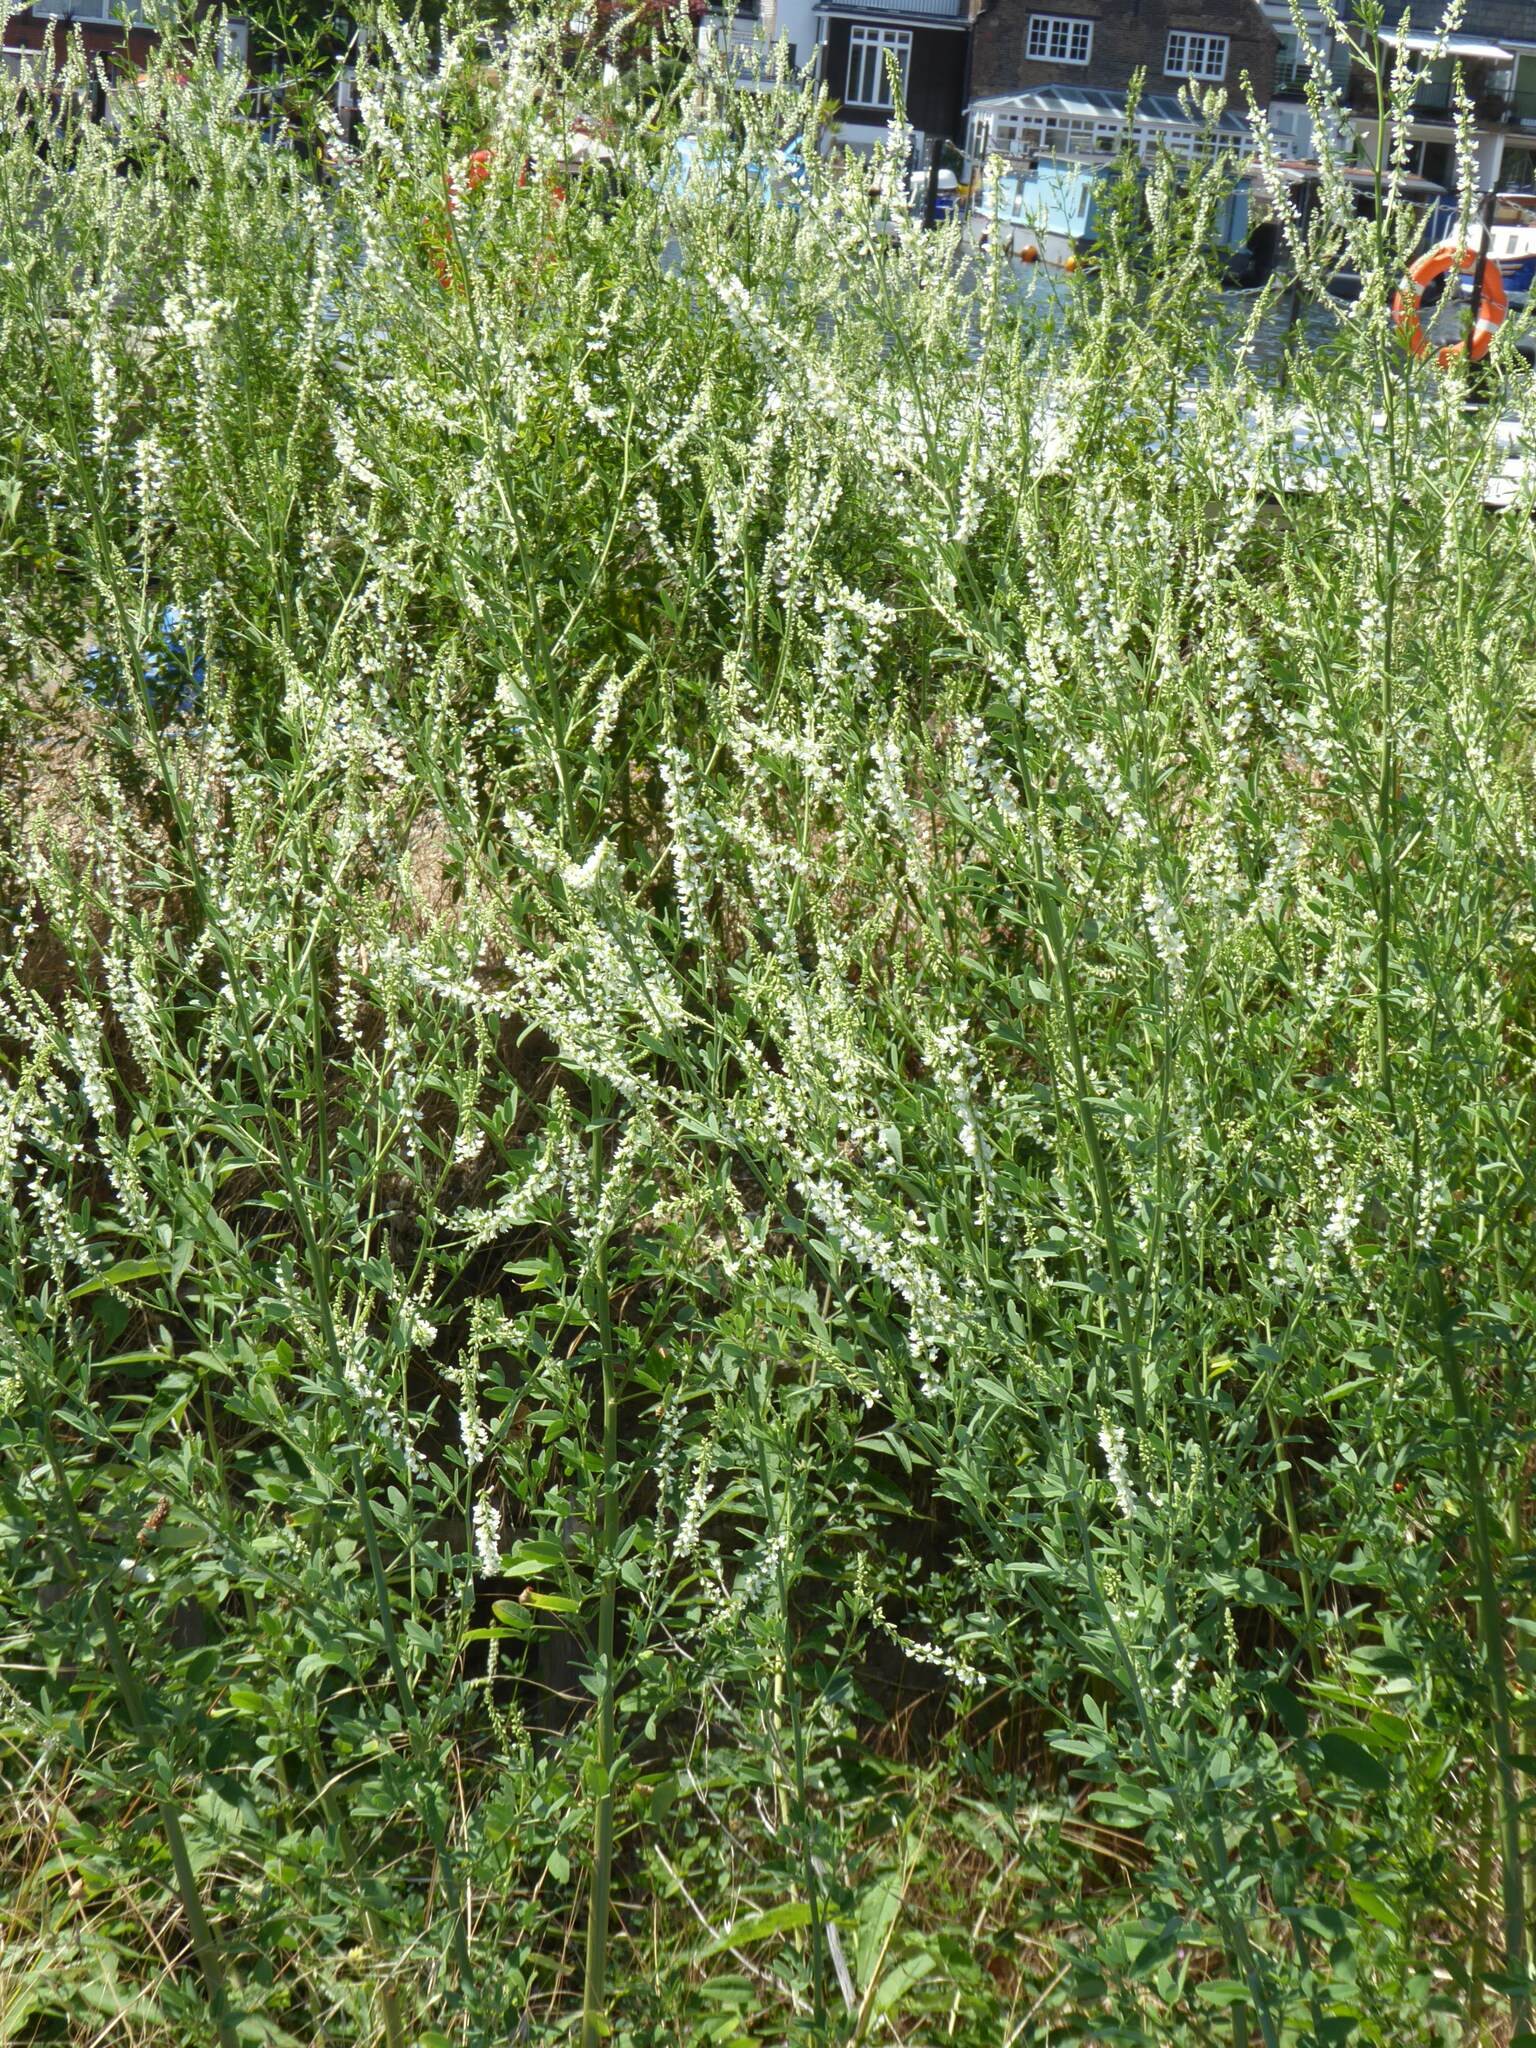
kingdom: Plantae
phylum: Tracheophyta
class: Magnoliopsida
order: Fabales
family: Fabaceae
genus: Melilotus
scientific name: Melilotus albus
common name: White melilot
